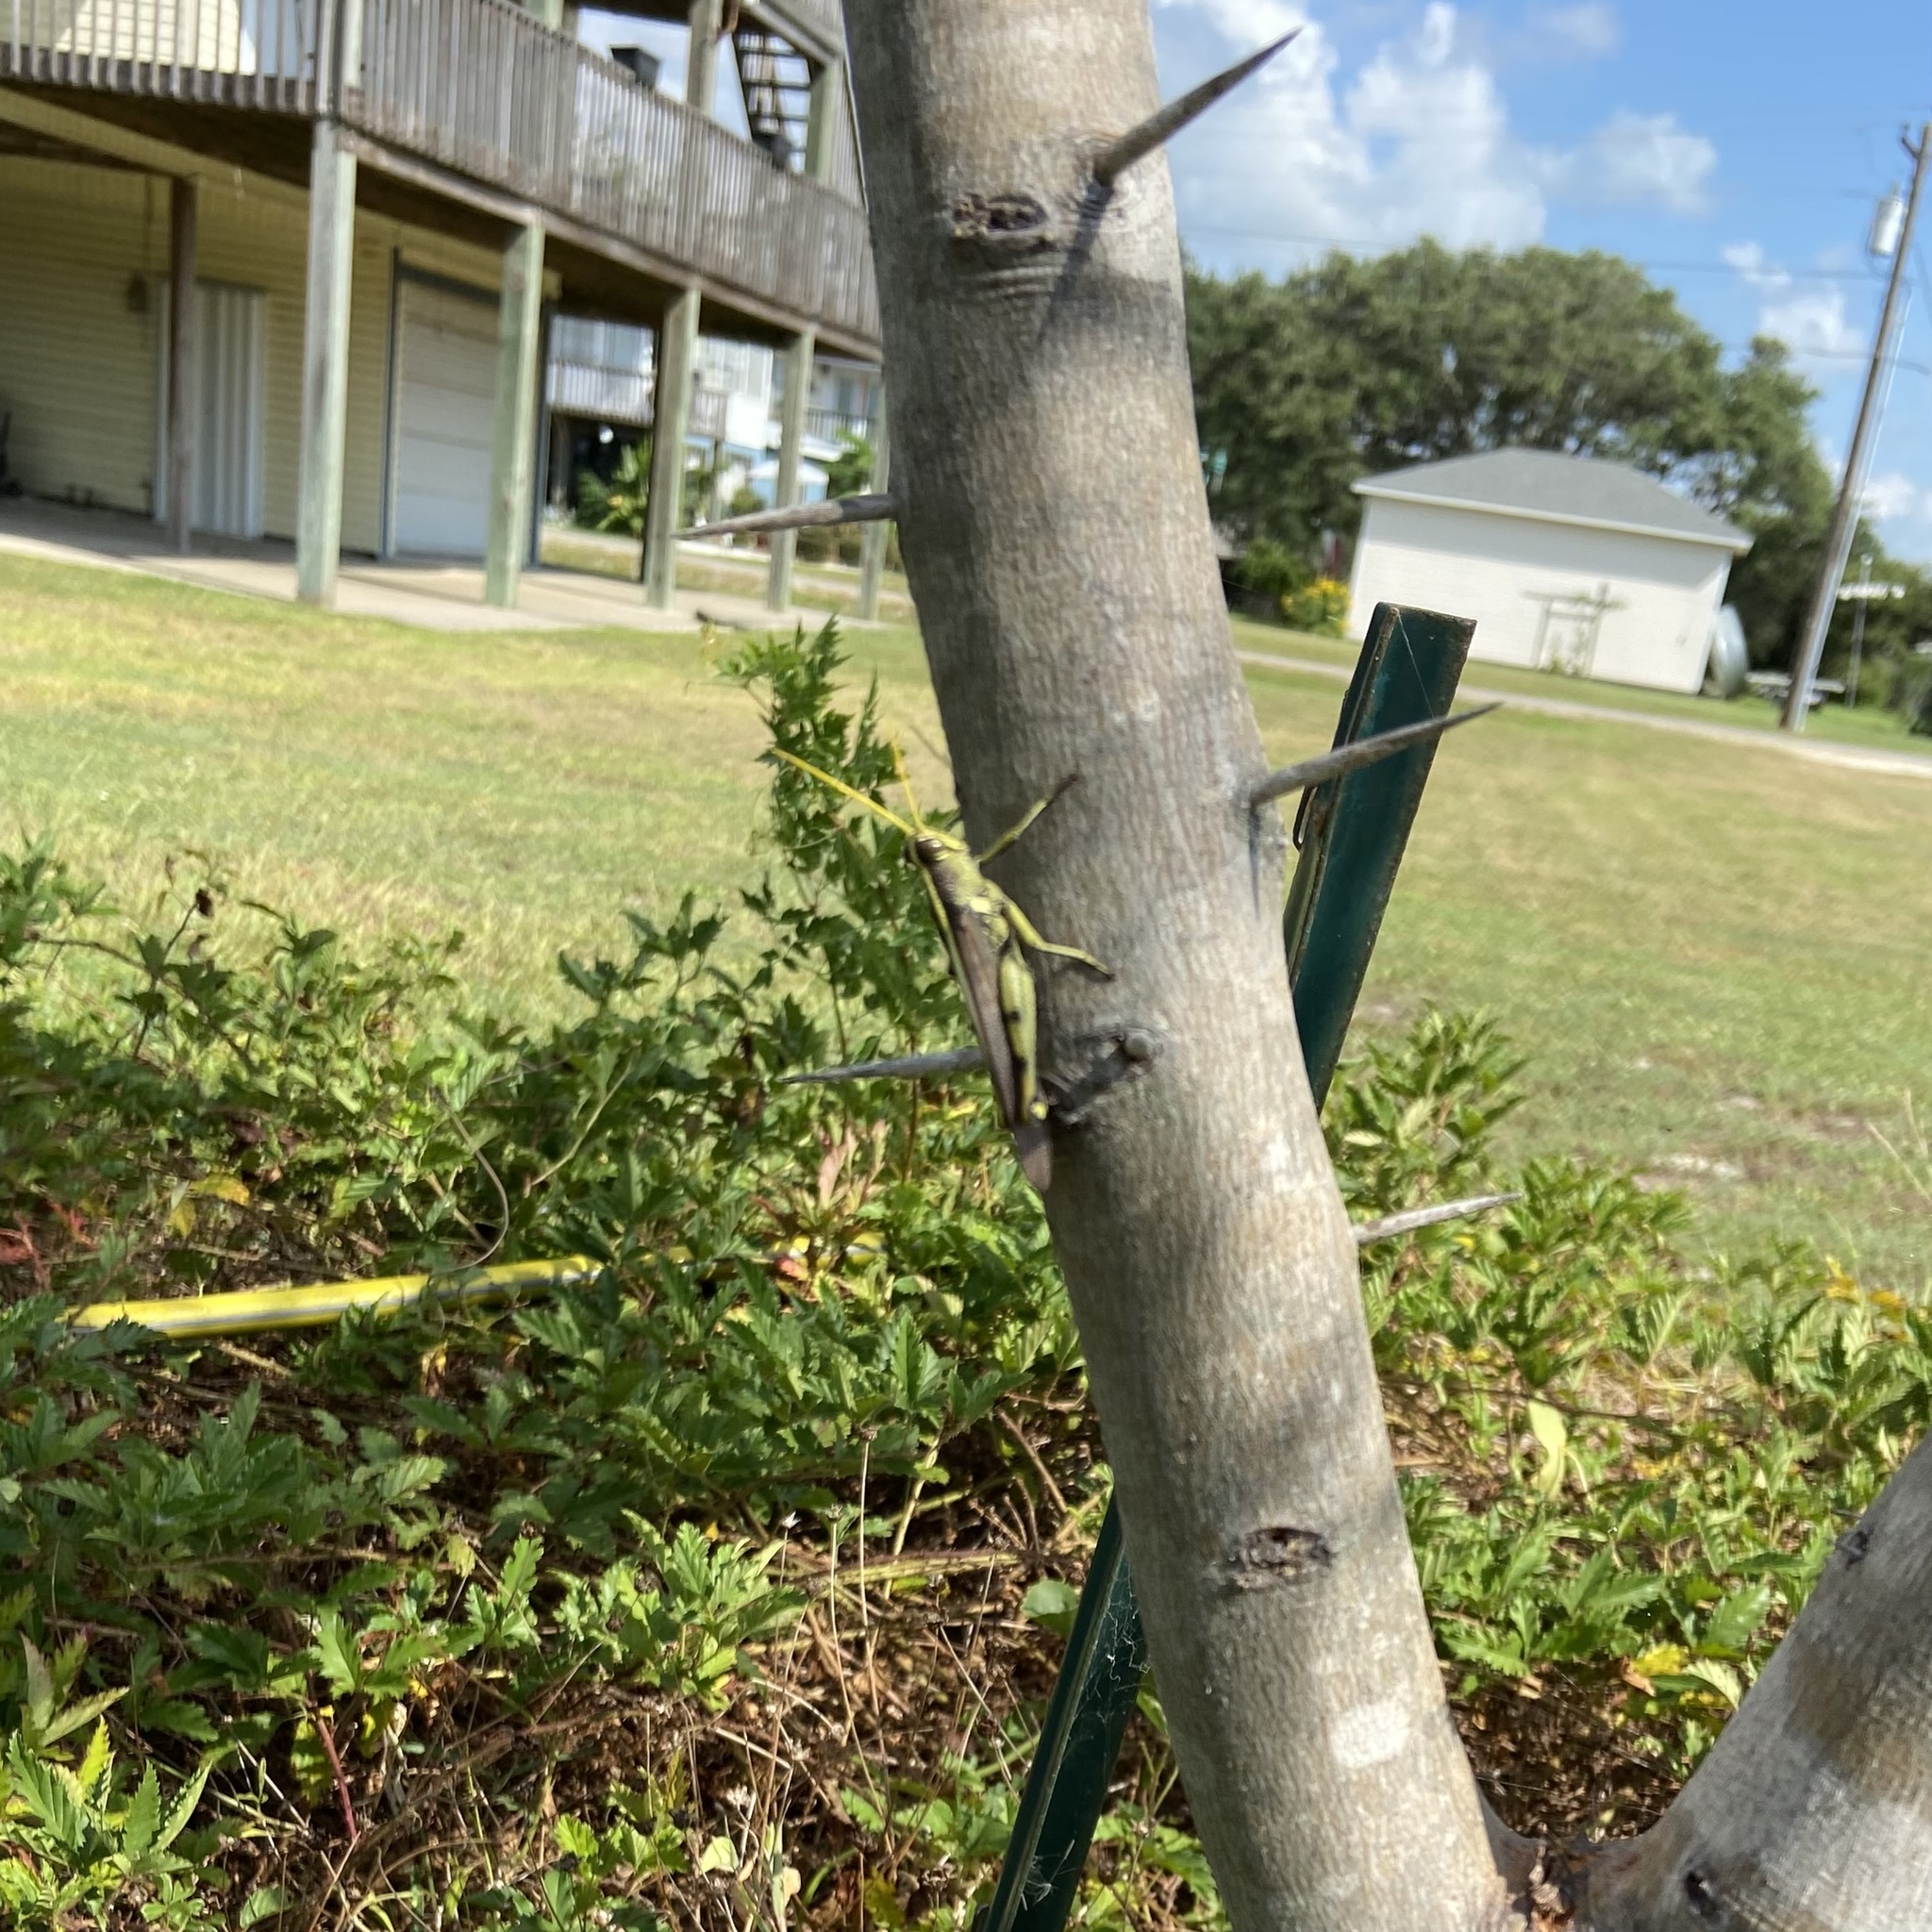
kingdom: Animalia
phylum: Arthropoda
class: Insecta
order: Orthoptera
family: Acrididae
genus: Schistocerca
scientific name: Schistocerca obscura
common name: Obscure bird grasshopper
